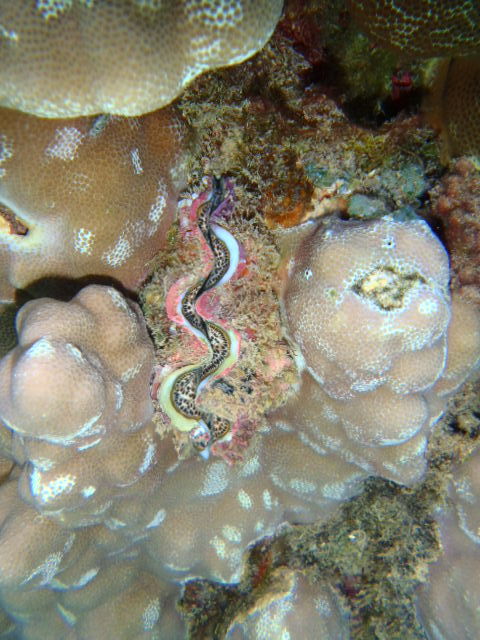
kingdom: Animalia
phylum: Mollusca
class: Bivalvia
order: Cardiida
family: Cardiidae
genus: Tridacna
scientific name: Tridacna maxima
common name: Small giant clam
